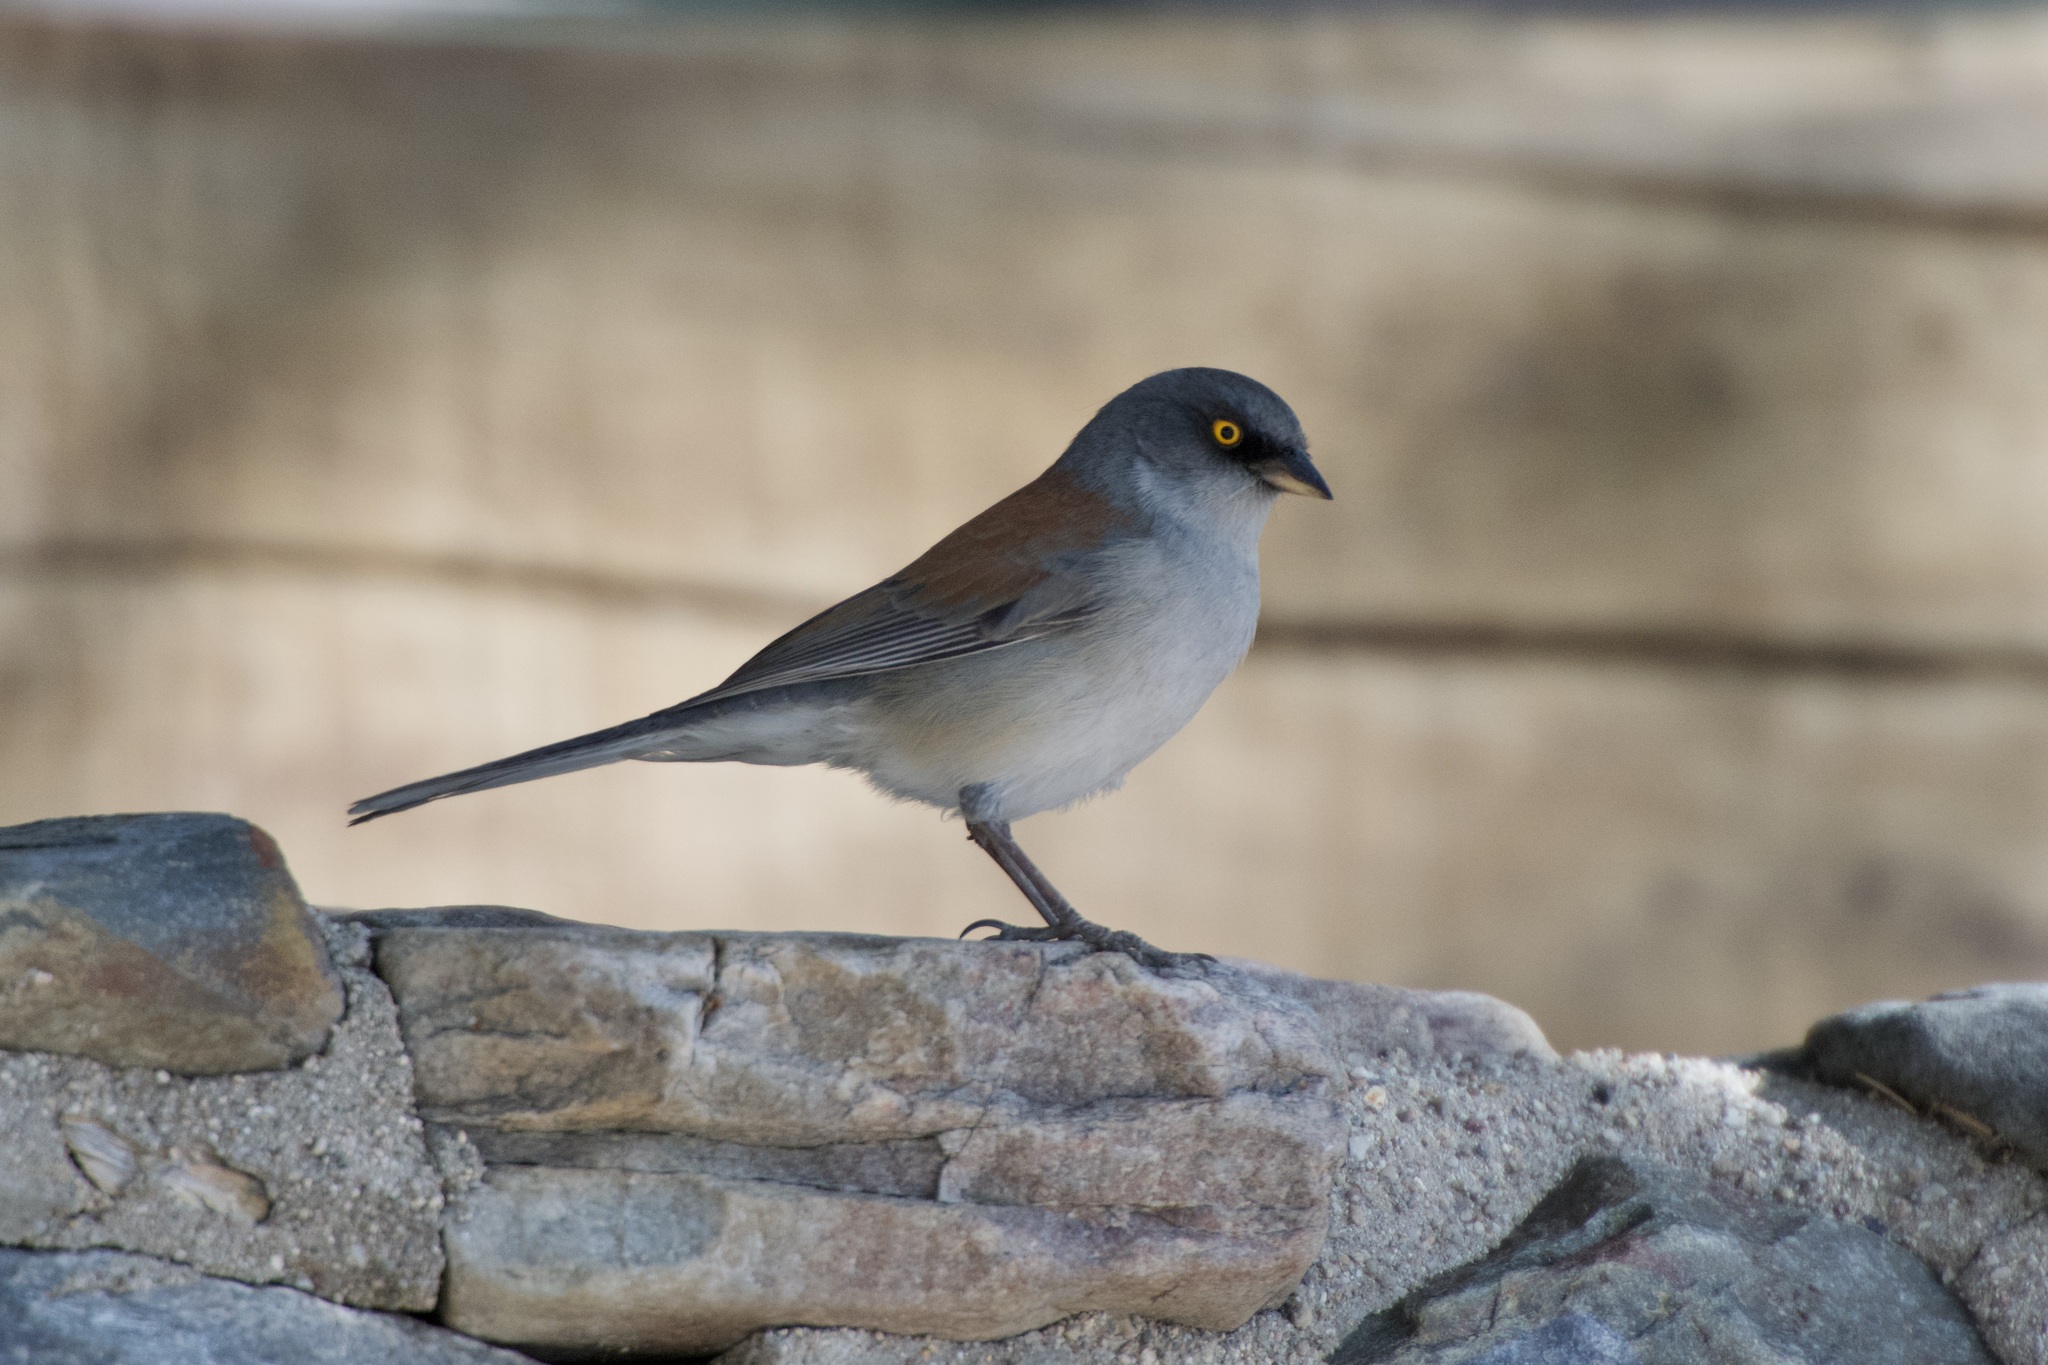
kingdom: Animalia
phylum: Chordata
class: Aves
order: Passeriformes
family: Passerellidae
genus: Junco
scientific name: Junco phaeonotus
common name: Yellow-eyed junco
